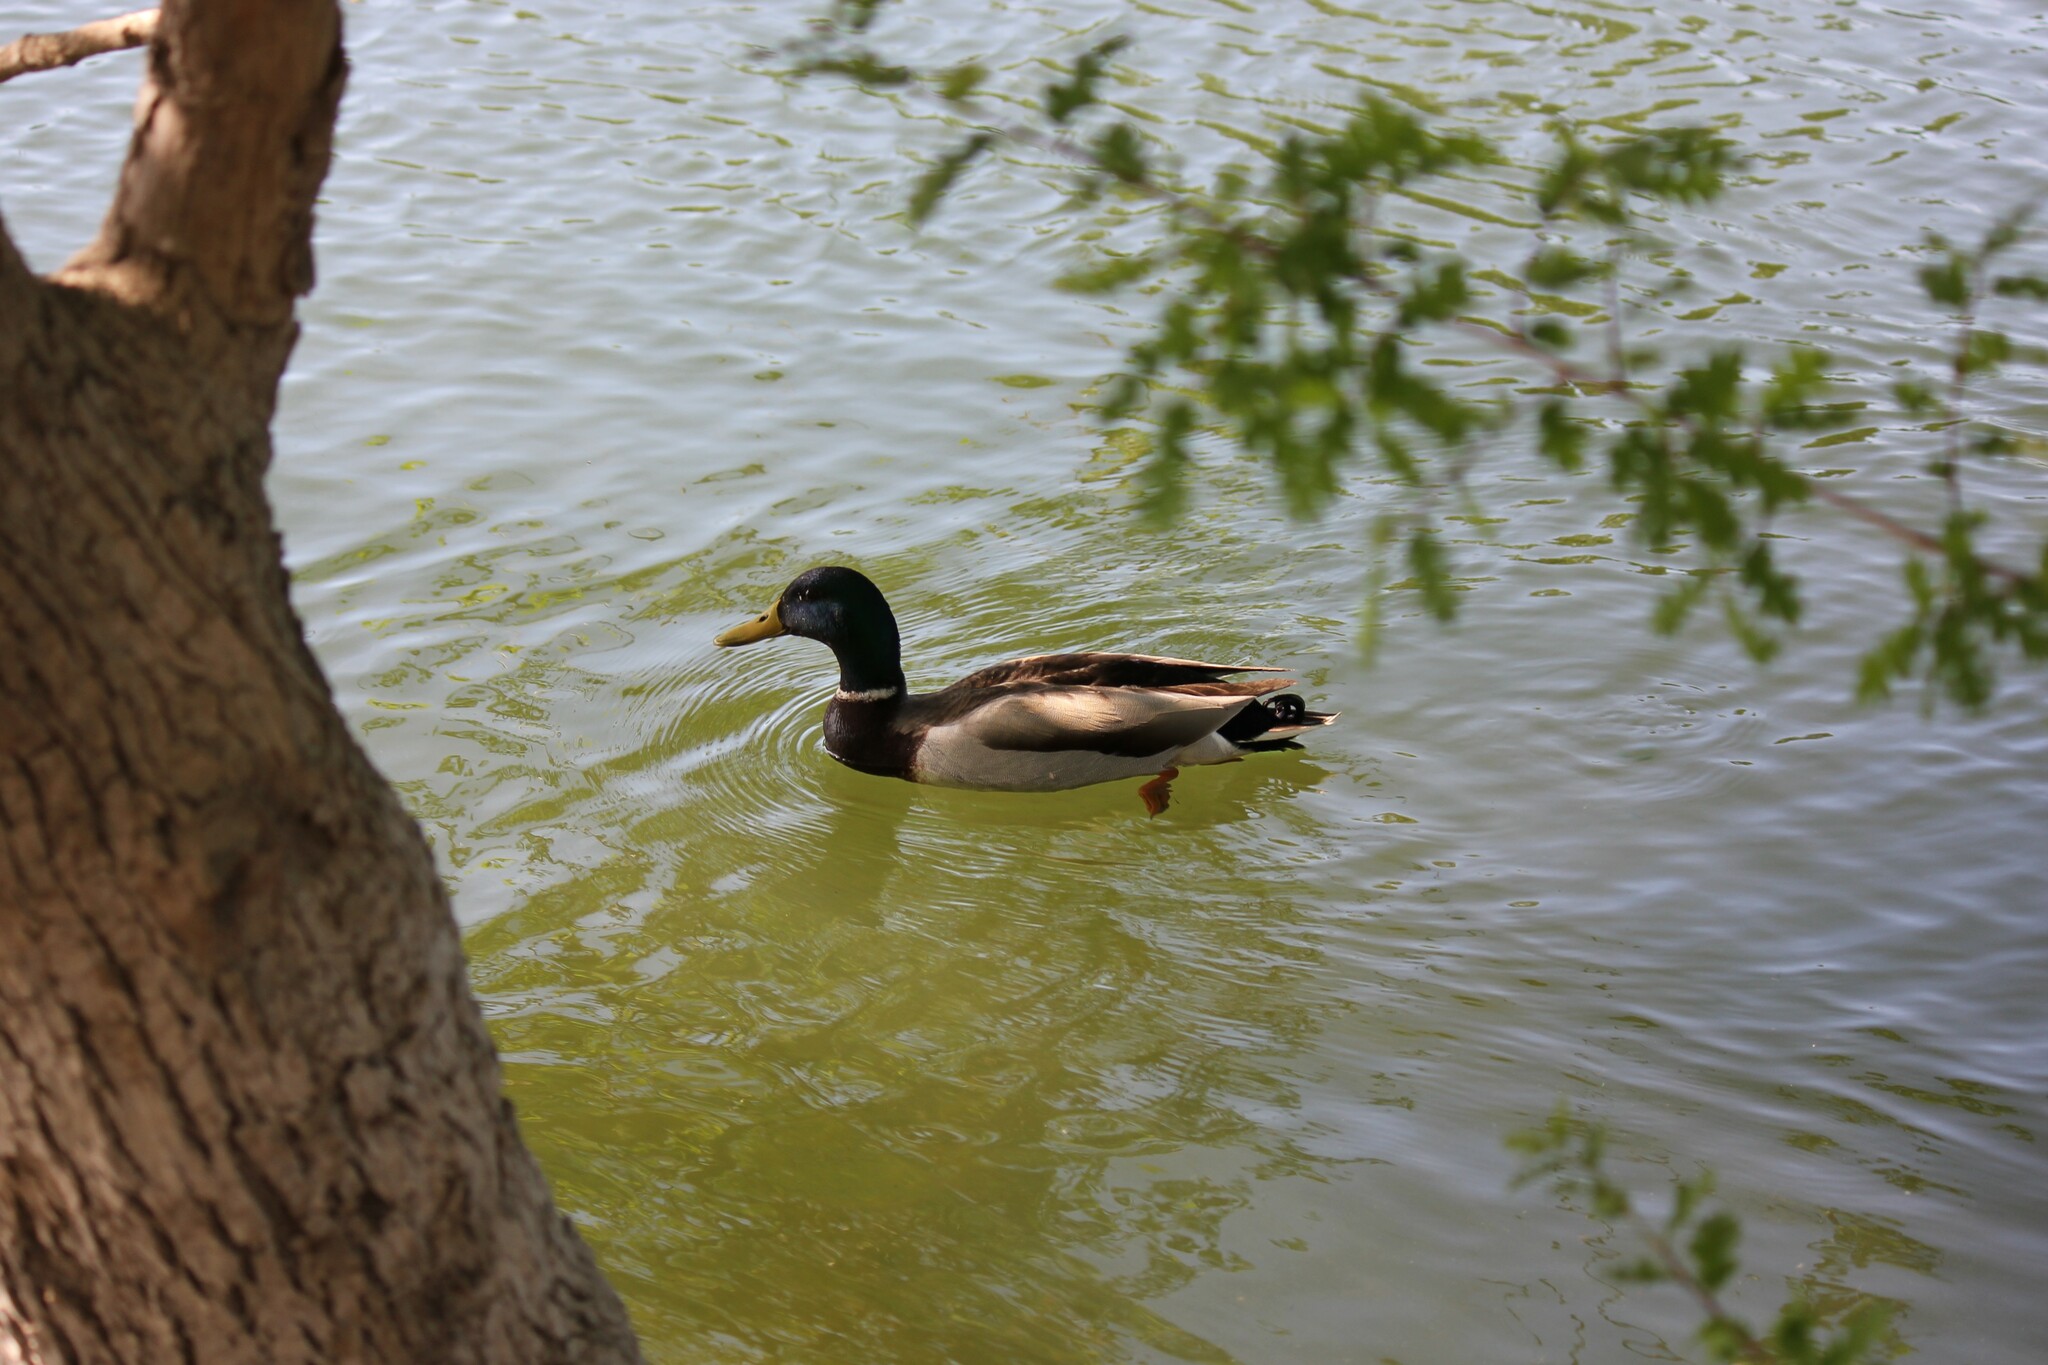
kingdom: Animalia
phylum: Chordata
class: Aves
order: Anseriformes
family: Anatidae
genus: Anas
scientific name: Anas platyrhynchos
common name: Mallard
